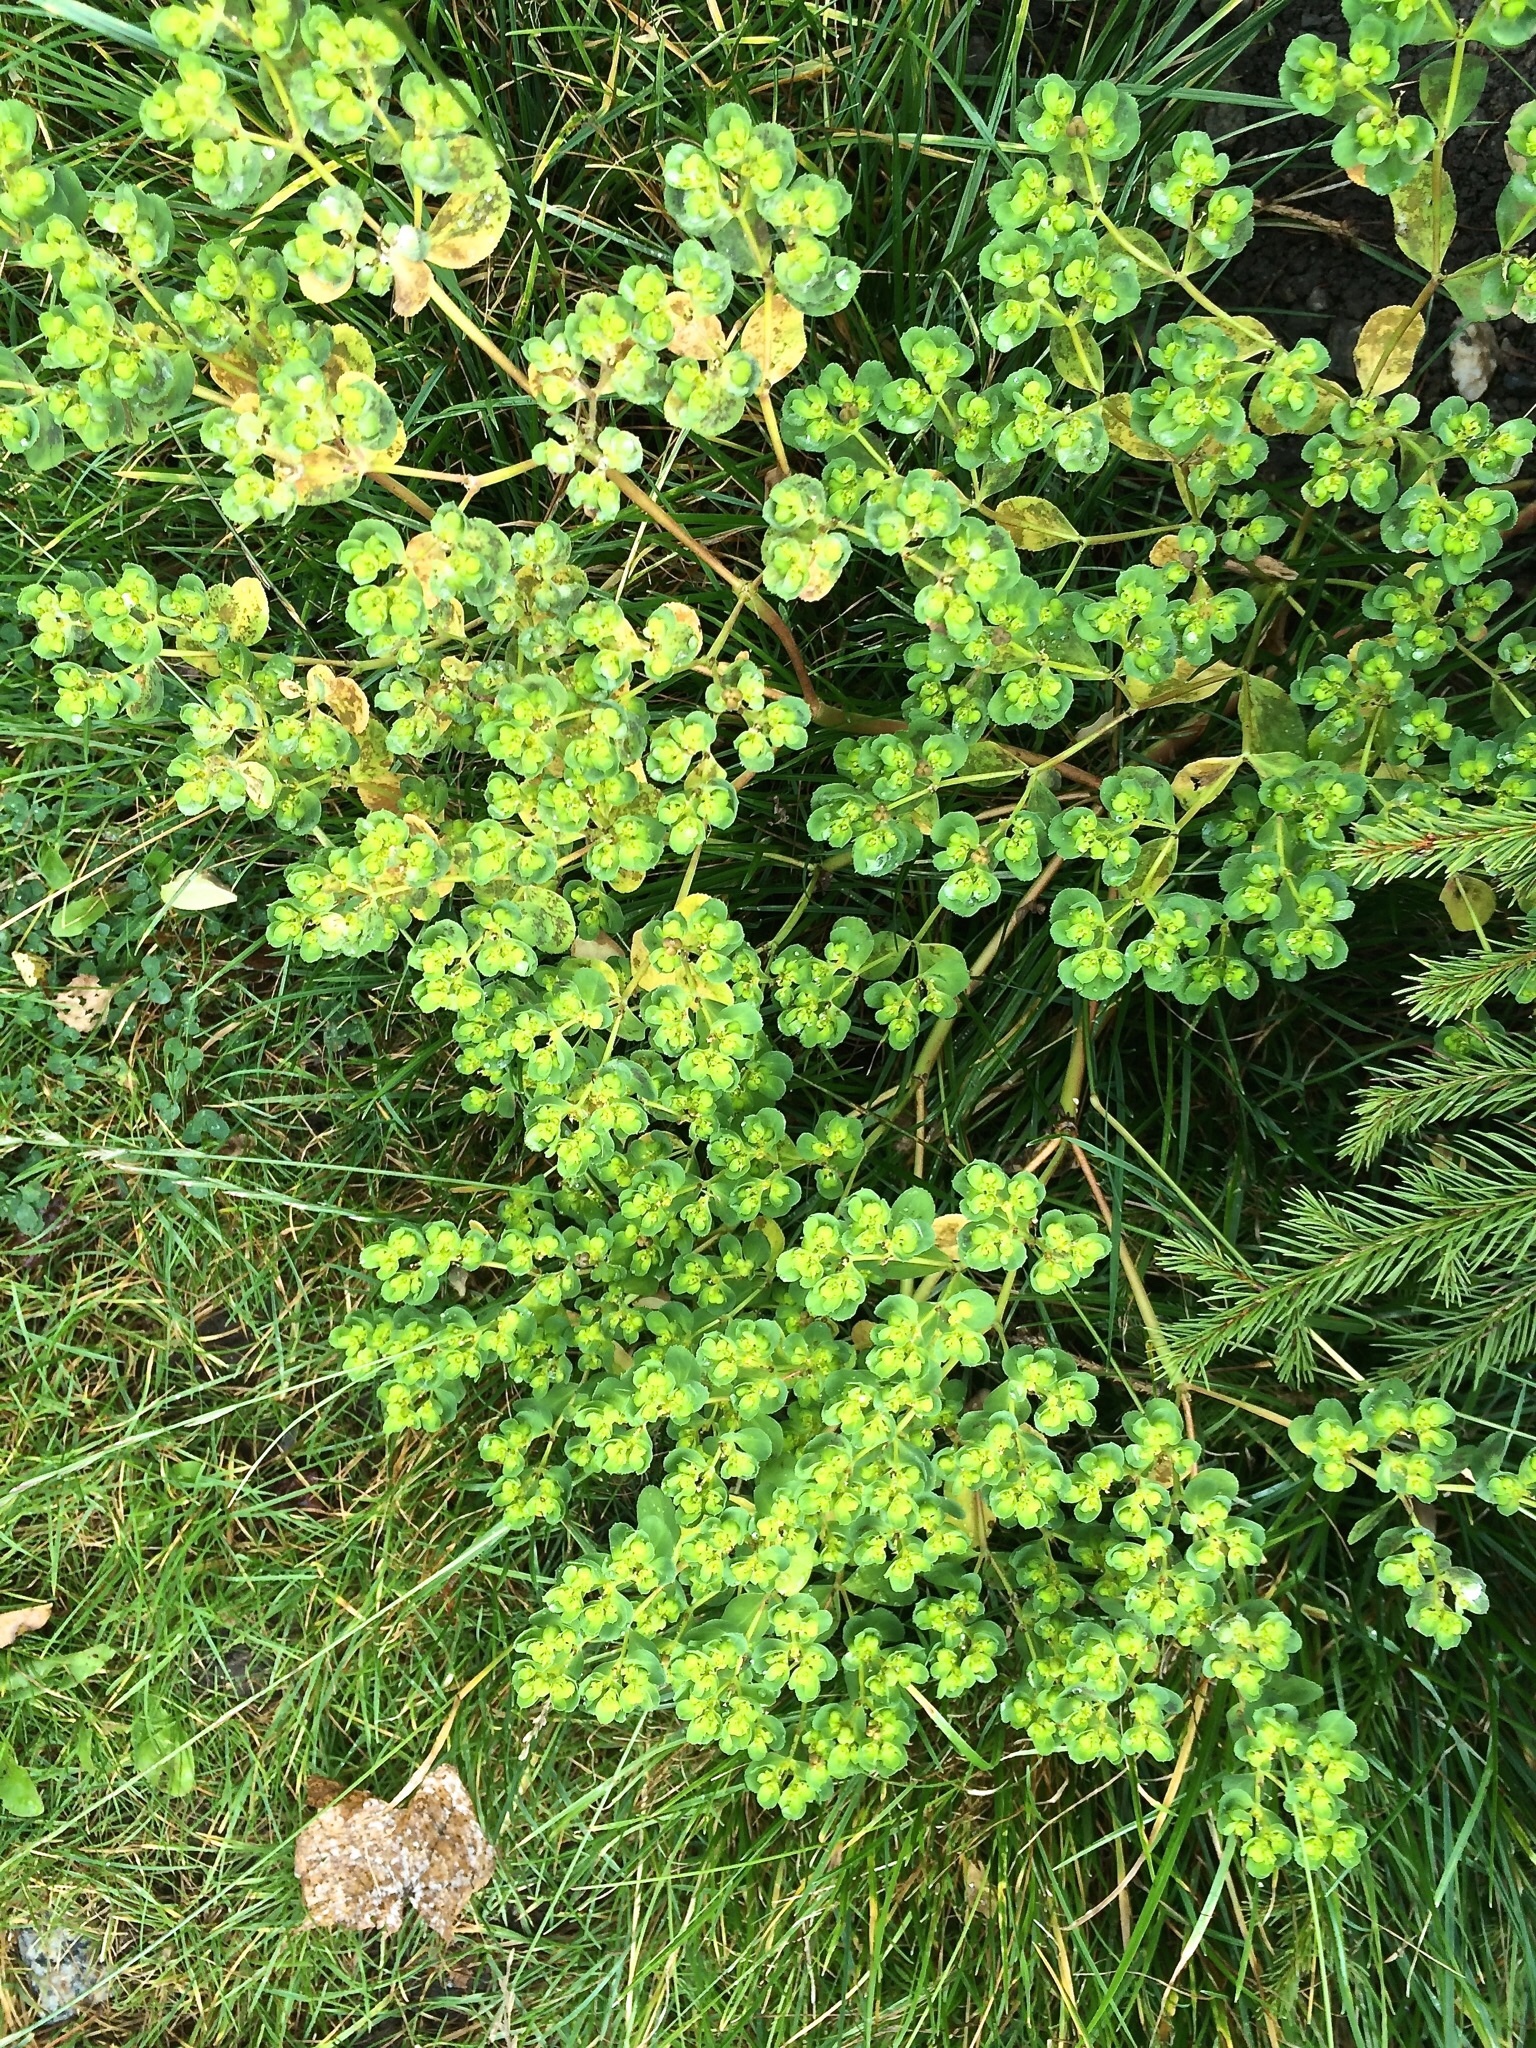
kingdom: Plantae
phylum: Tracheophyta
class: Magnoliopsida
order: Malpighiales
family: Euphorbiaceae
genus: Euphorbia
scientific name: Euphorbia helioscopia
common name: Sun spurge
